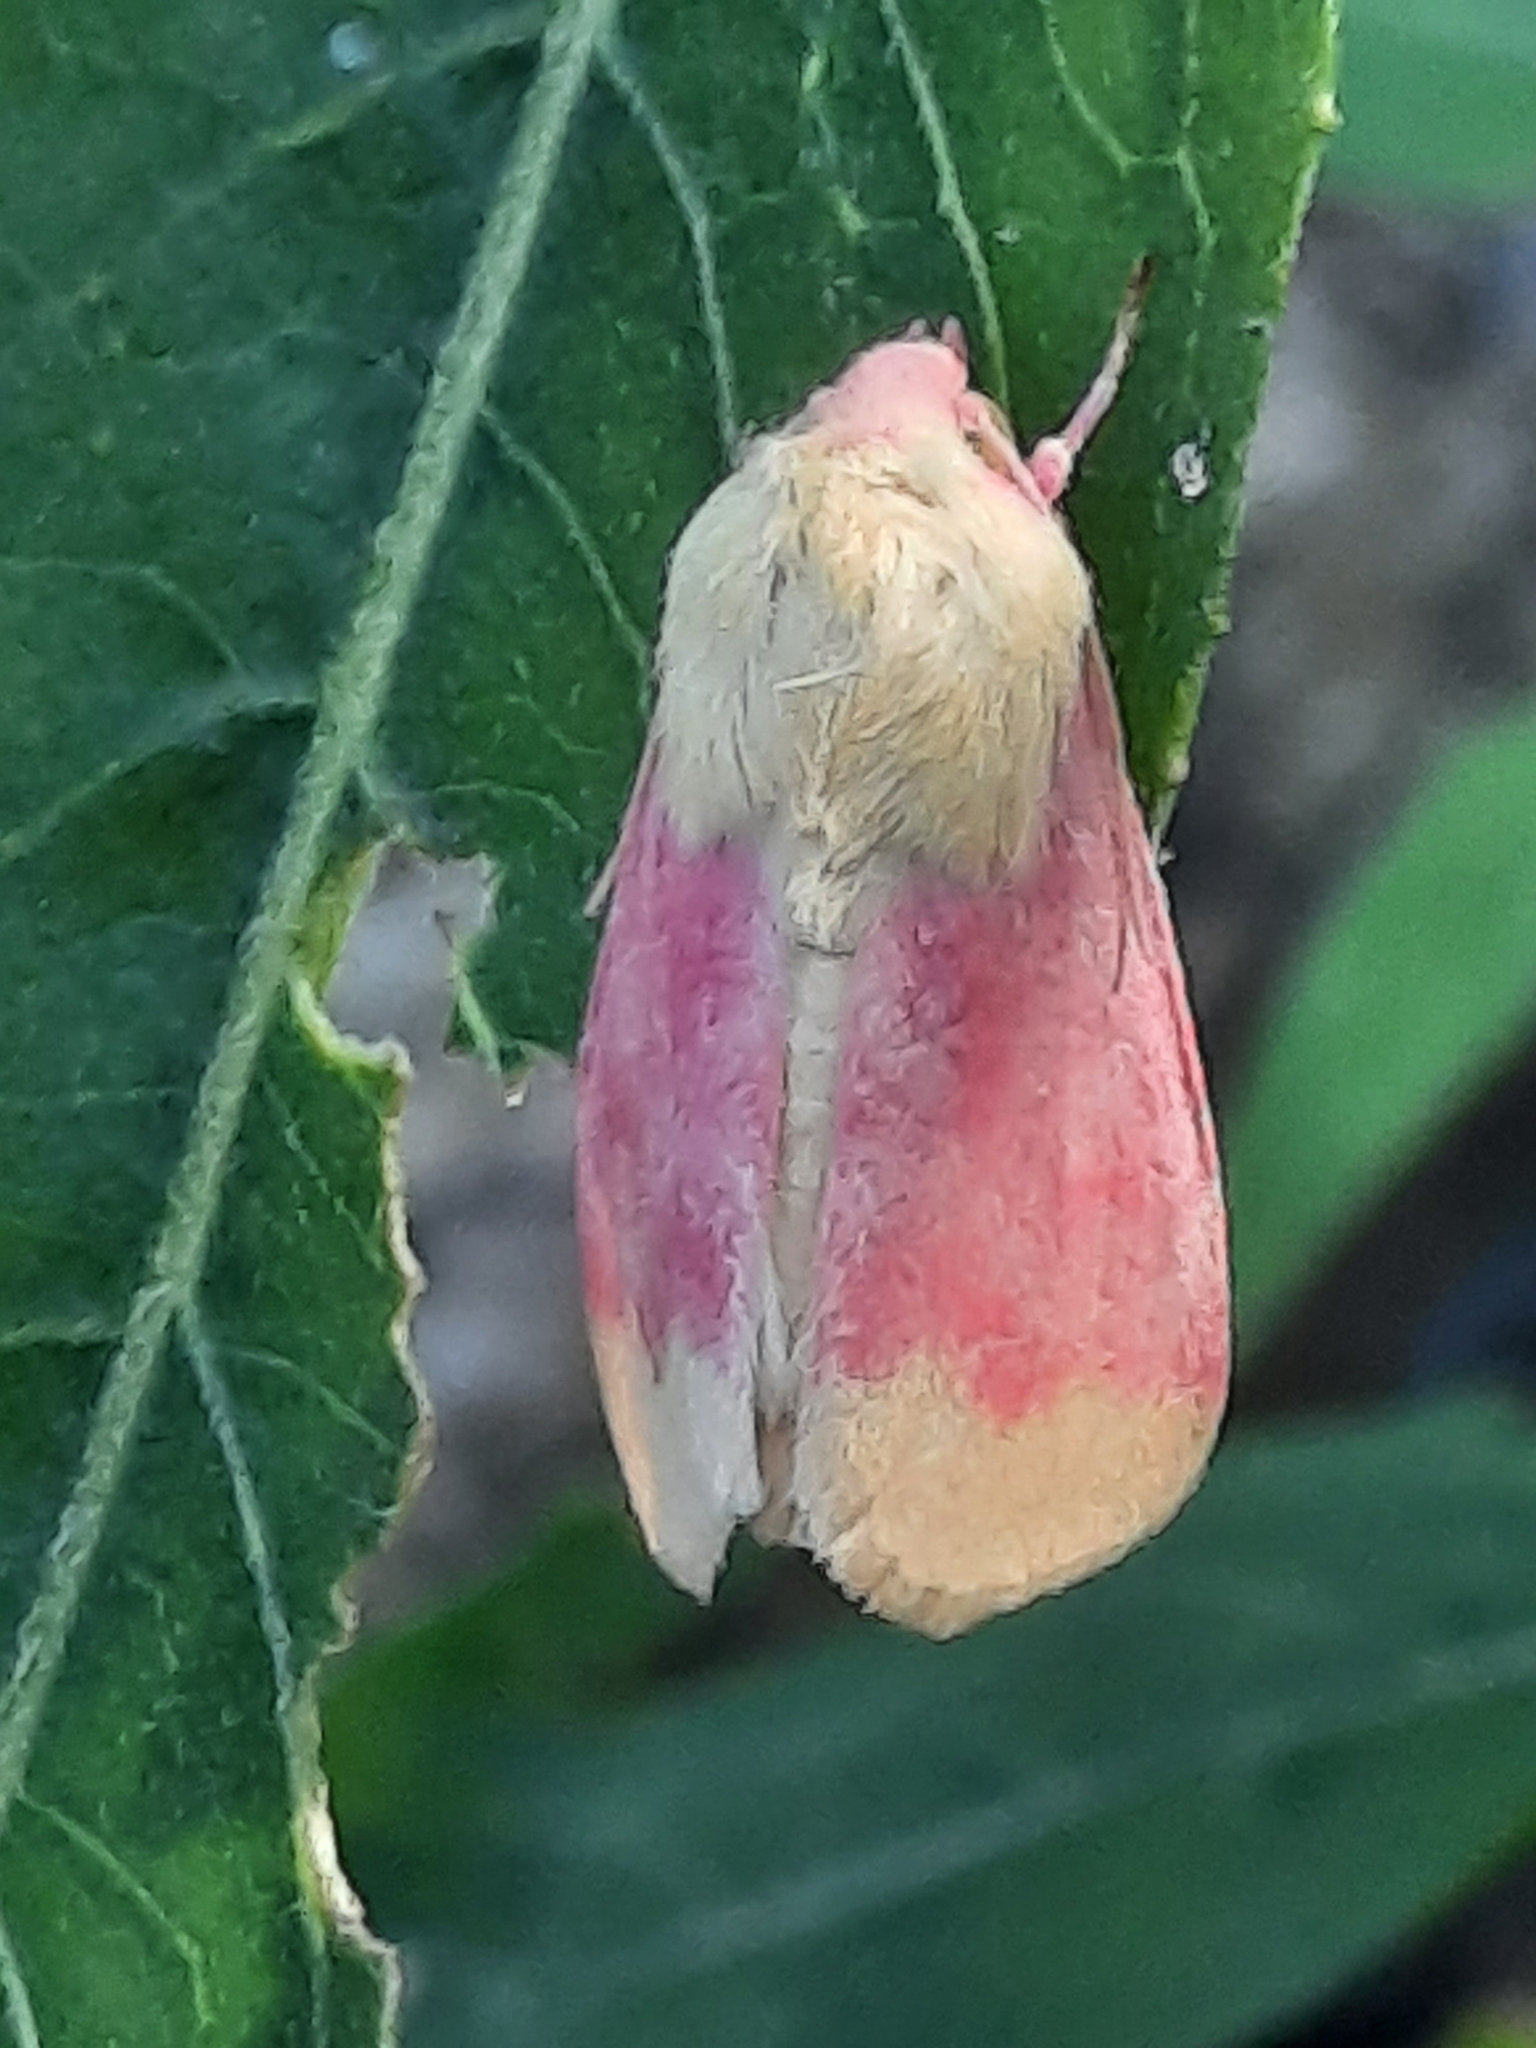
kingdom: Animalia
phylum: Arthropoda
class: Insecta
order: Lepidoptera
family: Noctuidae
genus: Schinia
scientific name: Schinia florida
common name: Primrose moth
